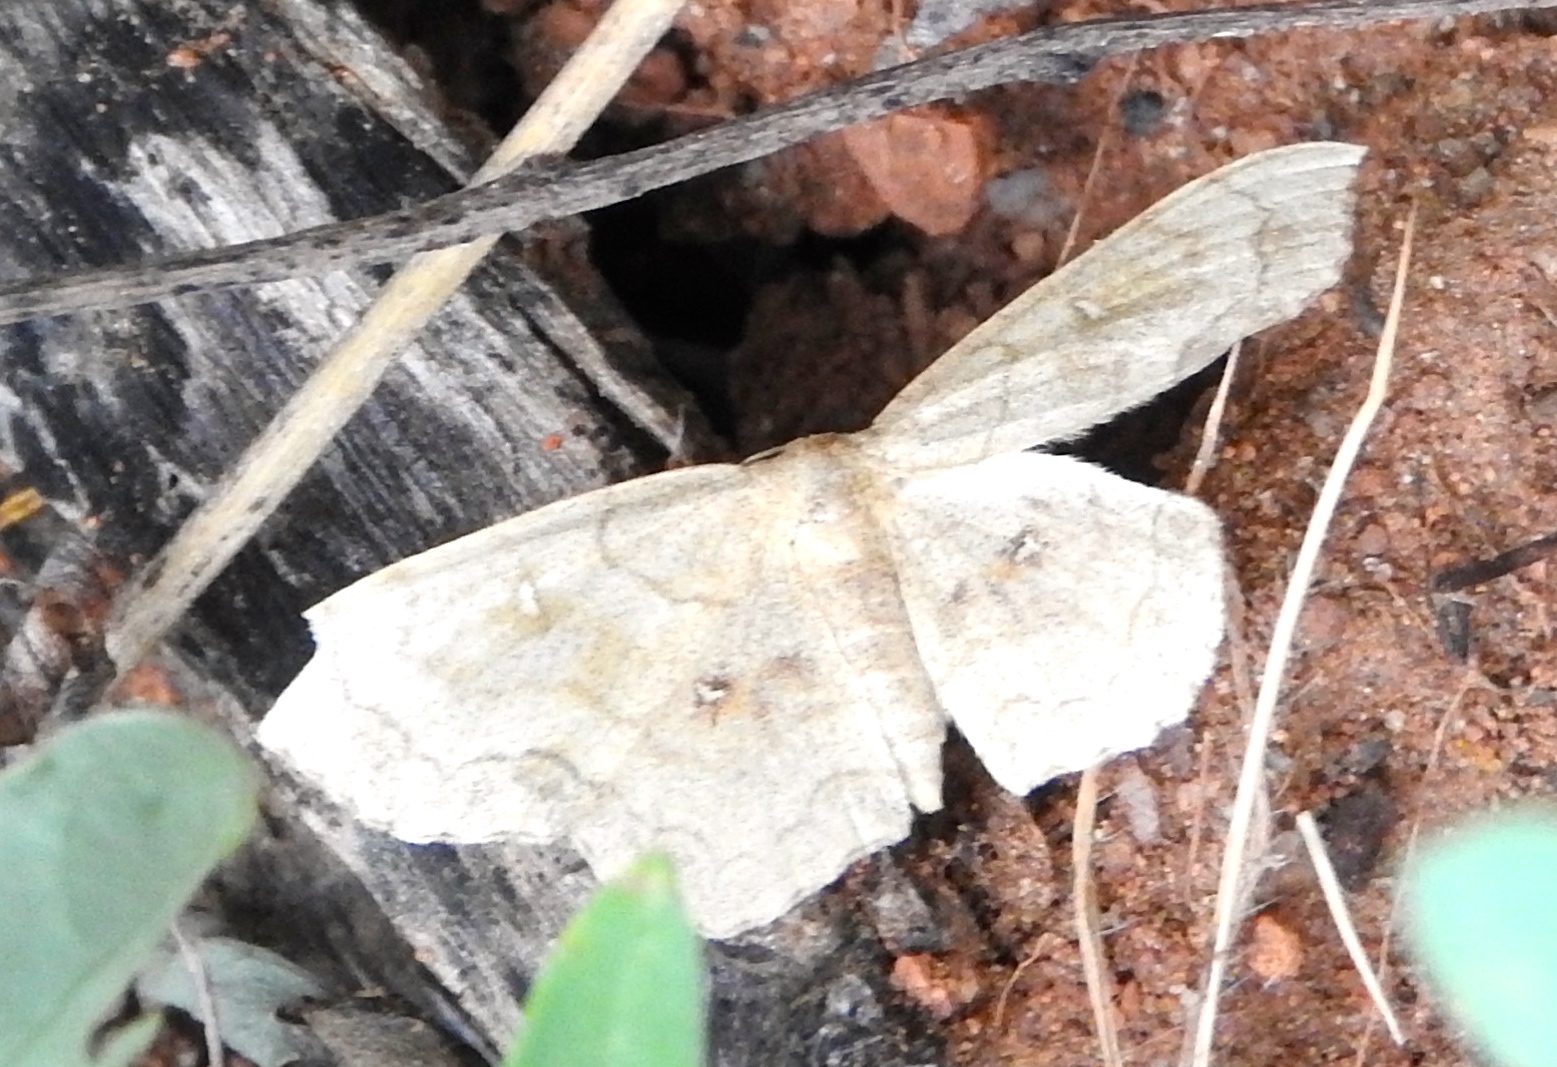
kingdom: Animalia
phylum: Arthropoda
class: Insecta
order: Lepidoptera
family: Geometridae
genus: Cyclophora
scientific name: Cyclophora
